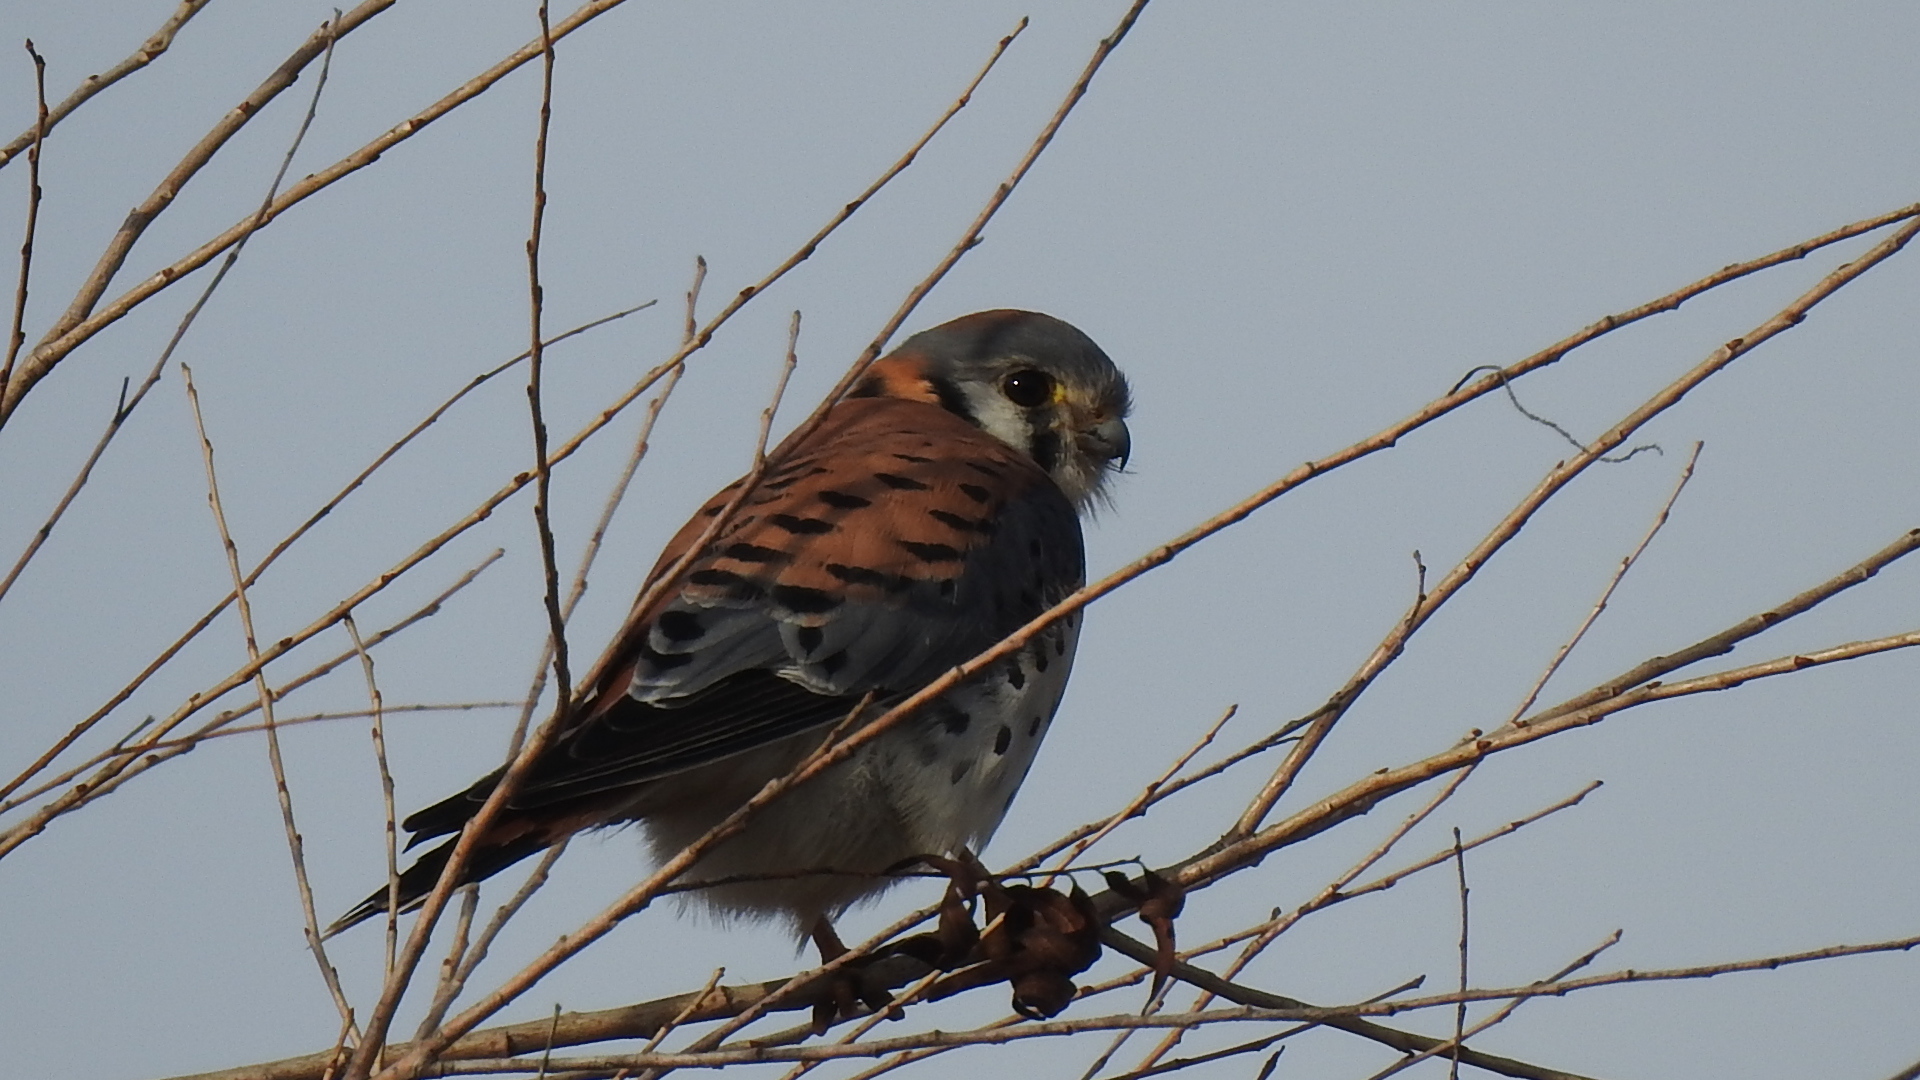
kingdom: Animalia
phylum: Chordata
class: Aves
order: Falconiformes
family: Falconidae
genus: Falco
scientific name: Falco sparverius
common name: American kestrel
